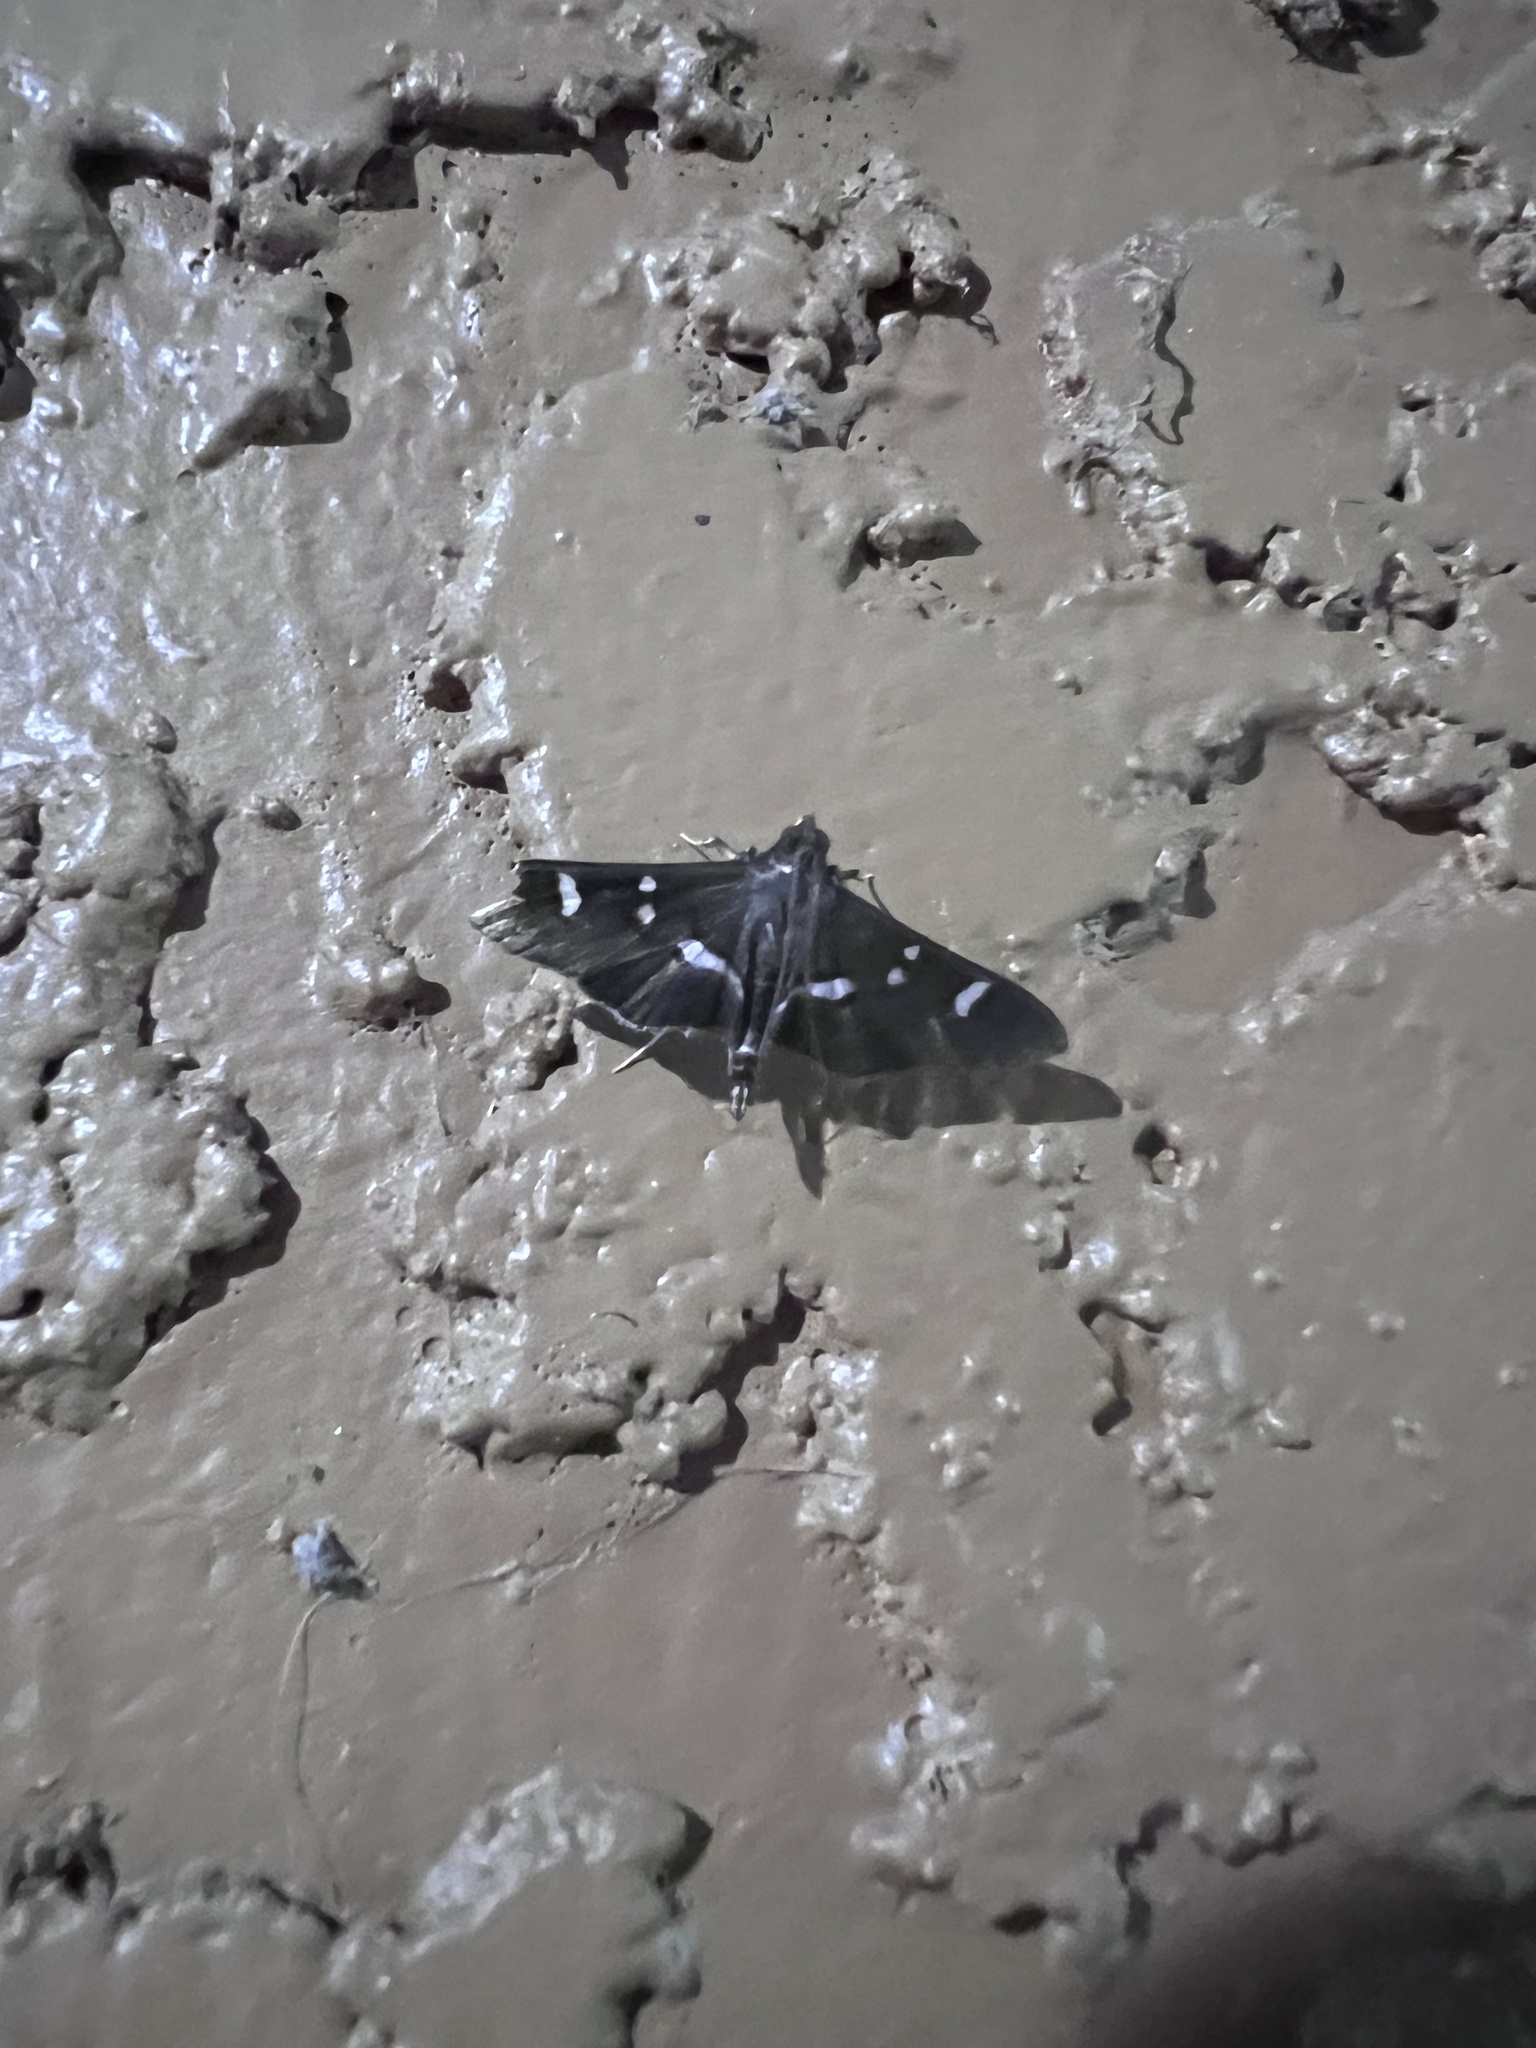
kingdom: Animalia
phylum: Arthropoda
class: Insecta
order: Lepidoptera
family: Crambidae
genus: Desmia
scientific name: Desmia
